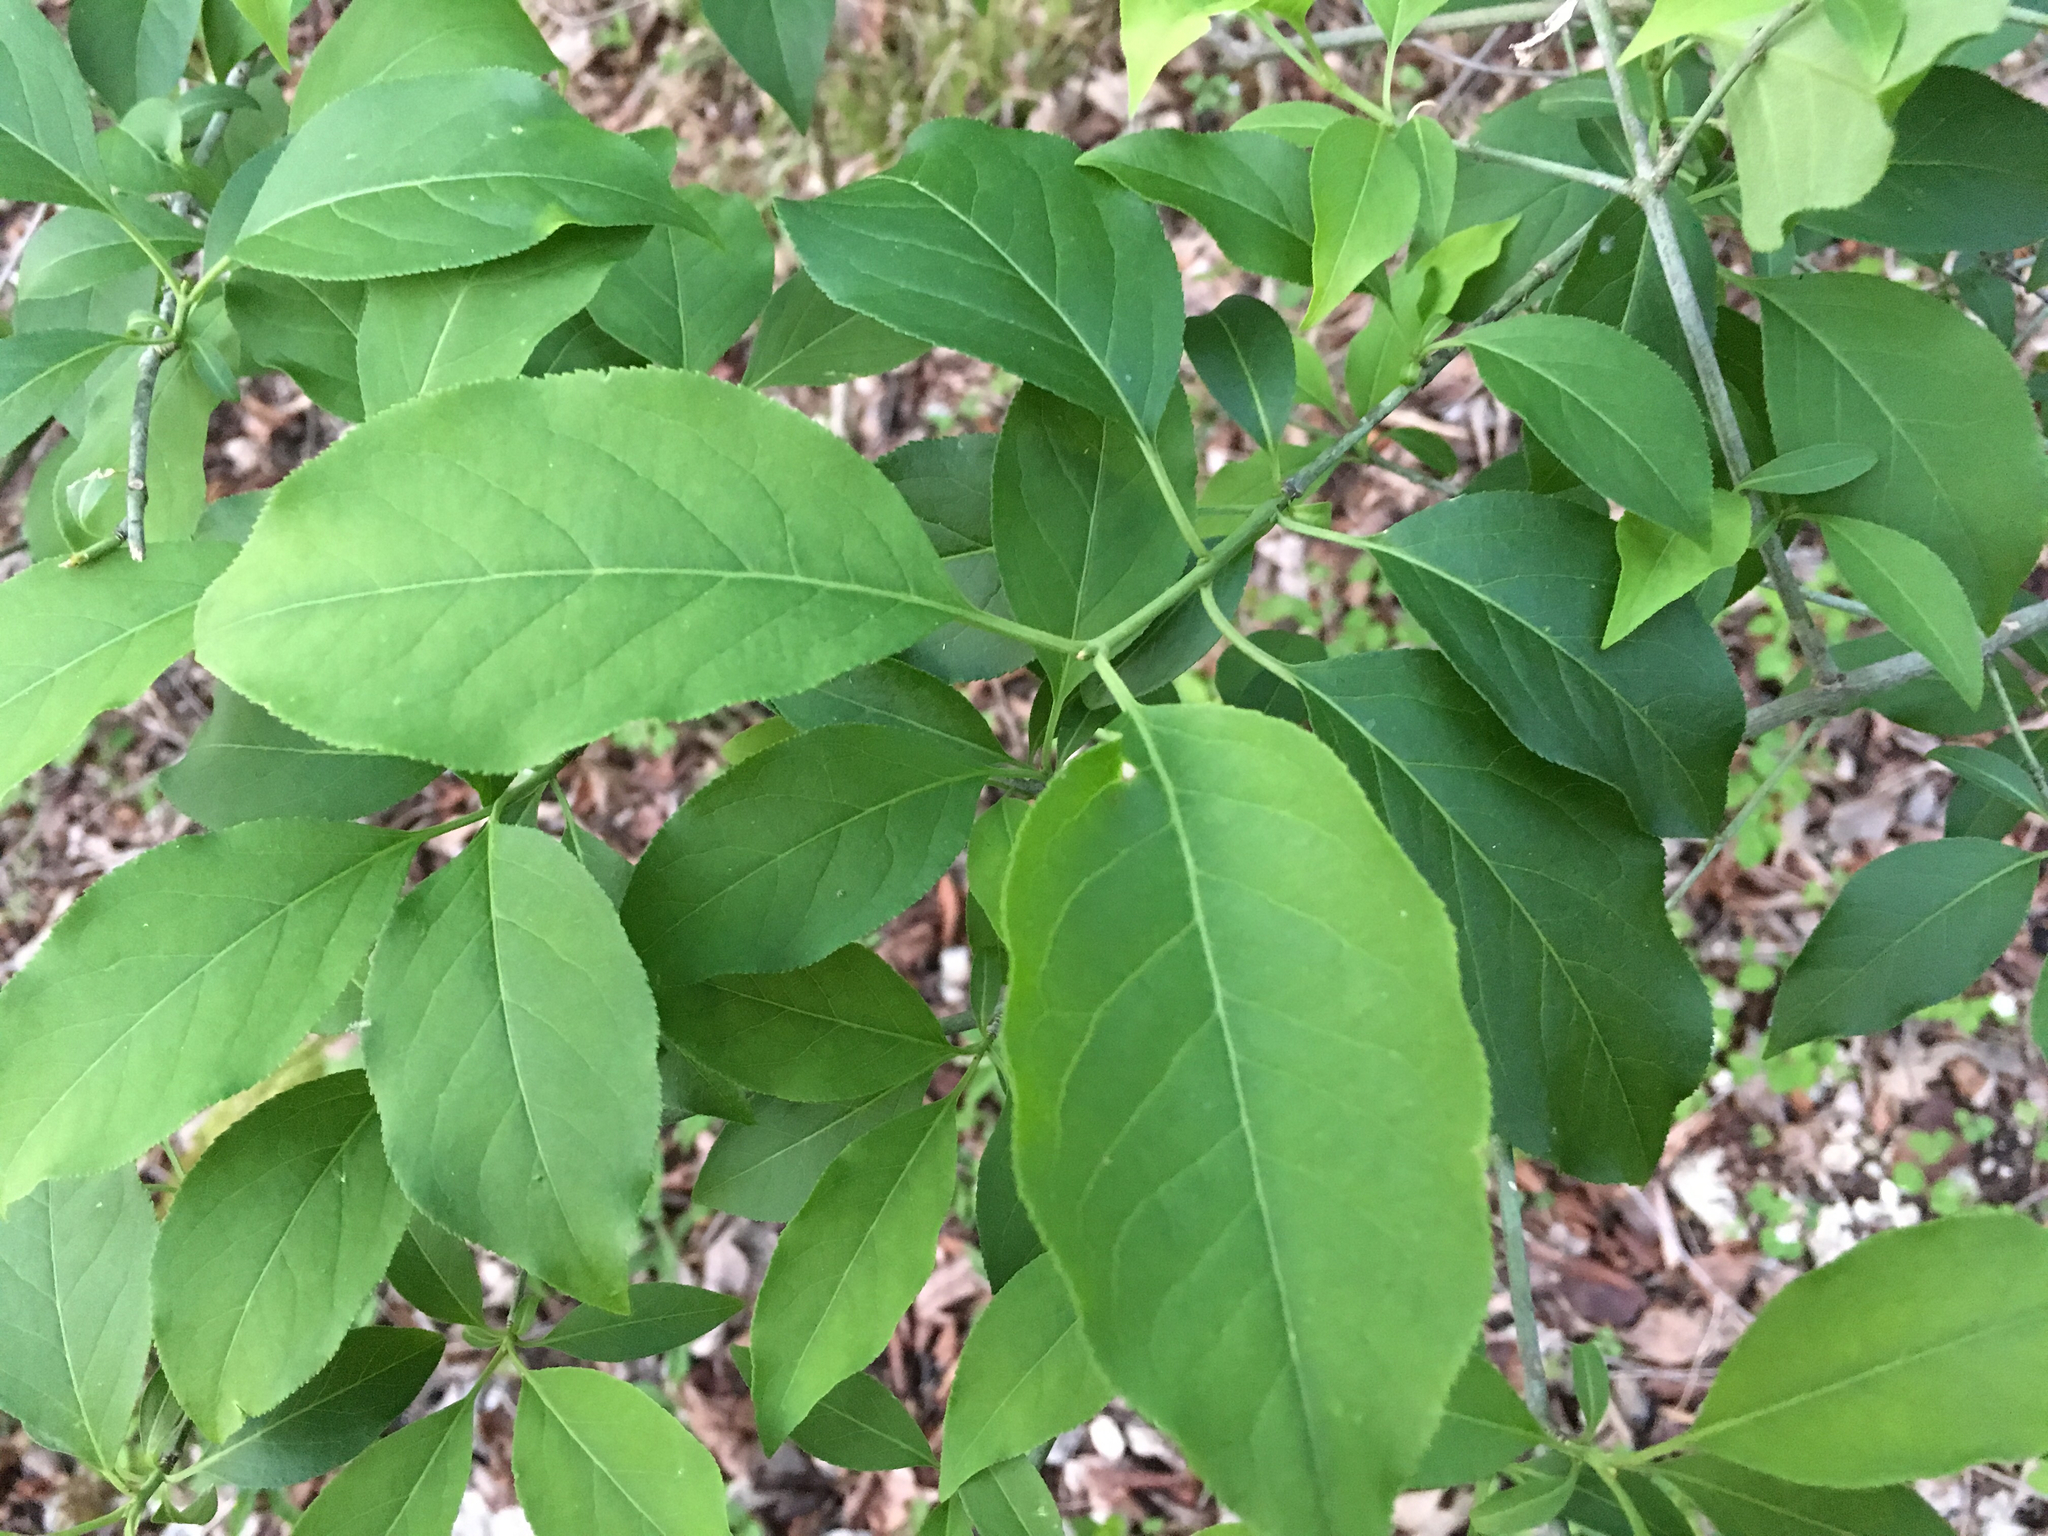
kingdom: Plantae
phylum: Tracheophyta
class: Magnoliopsida
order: Celastrales
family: Celastraceae
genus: Euonymus
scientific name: Euonymus atropurpureus
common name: Eastern wahoo
